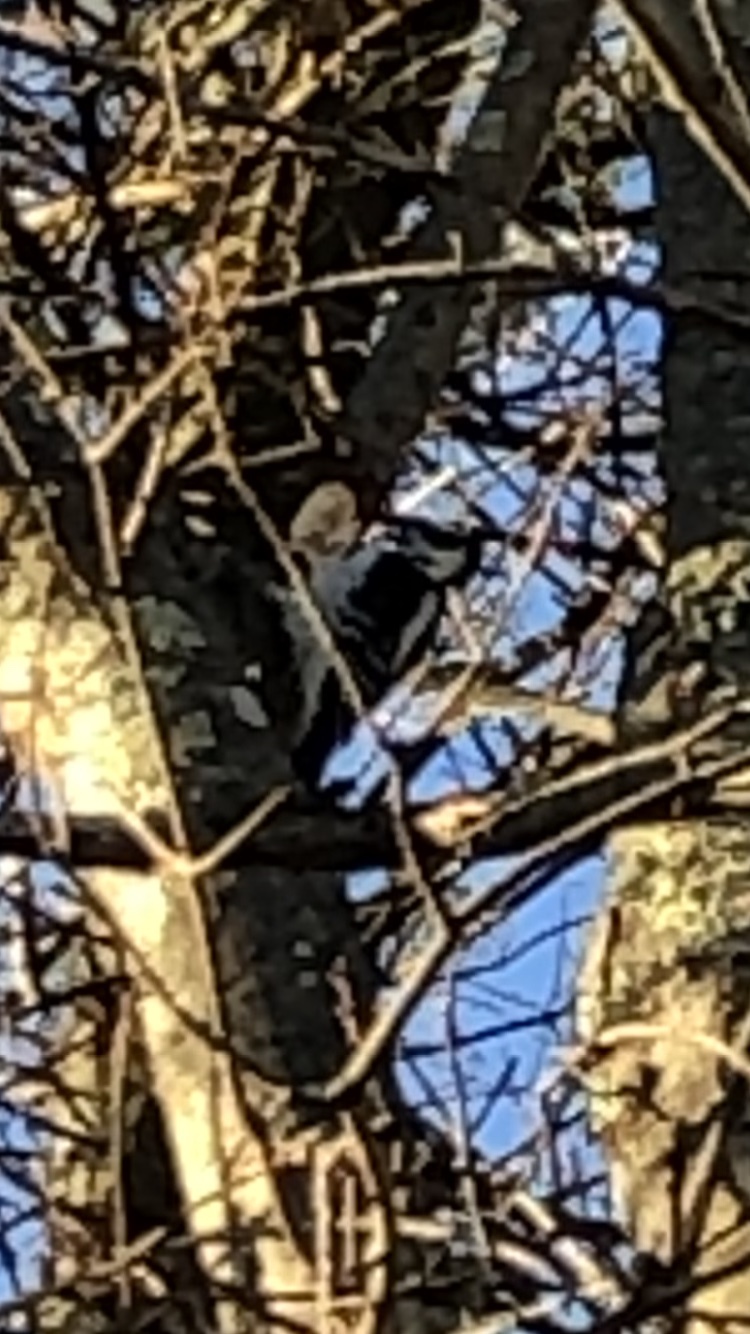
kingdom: Animalia
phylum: Chordata
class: Aves
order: Piciformes
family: Picidae
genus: Dryobates
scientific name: Dryobates pubescens
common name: Downy woodpecker
